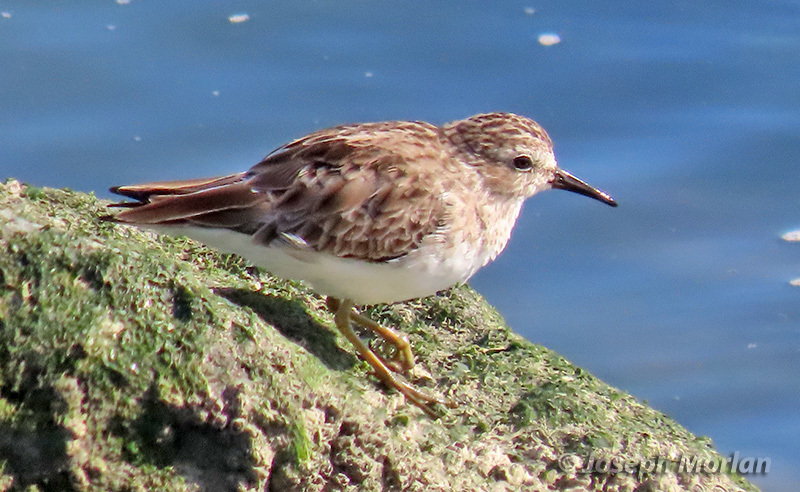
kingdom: Animalia
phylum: Chordata
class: Aves
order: Charadriiformes
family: Scolopacidae
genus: Calidris
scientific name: Calidris minutilla
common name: Least sandpiper
